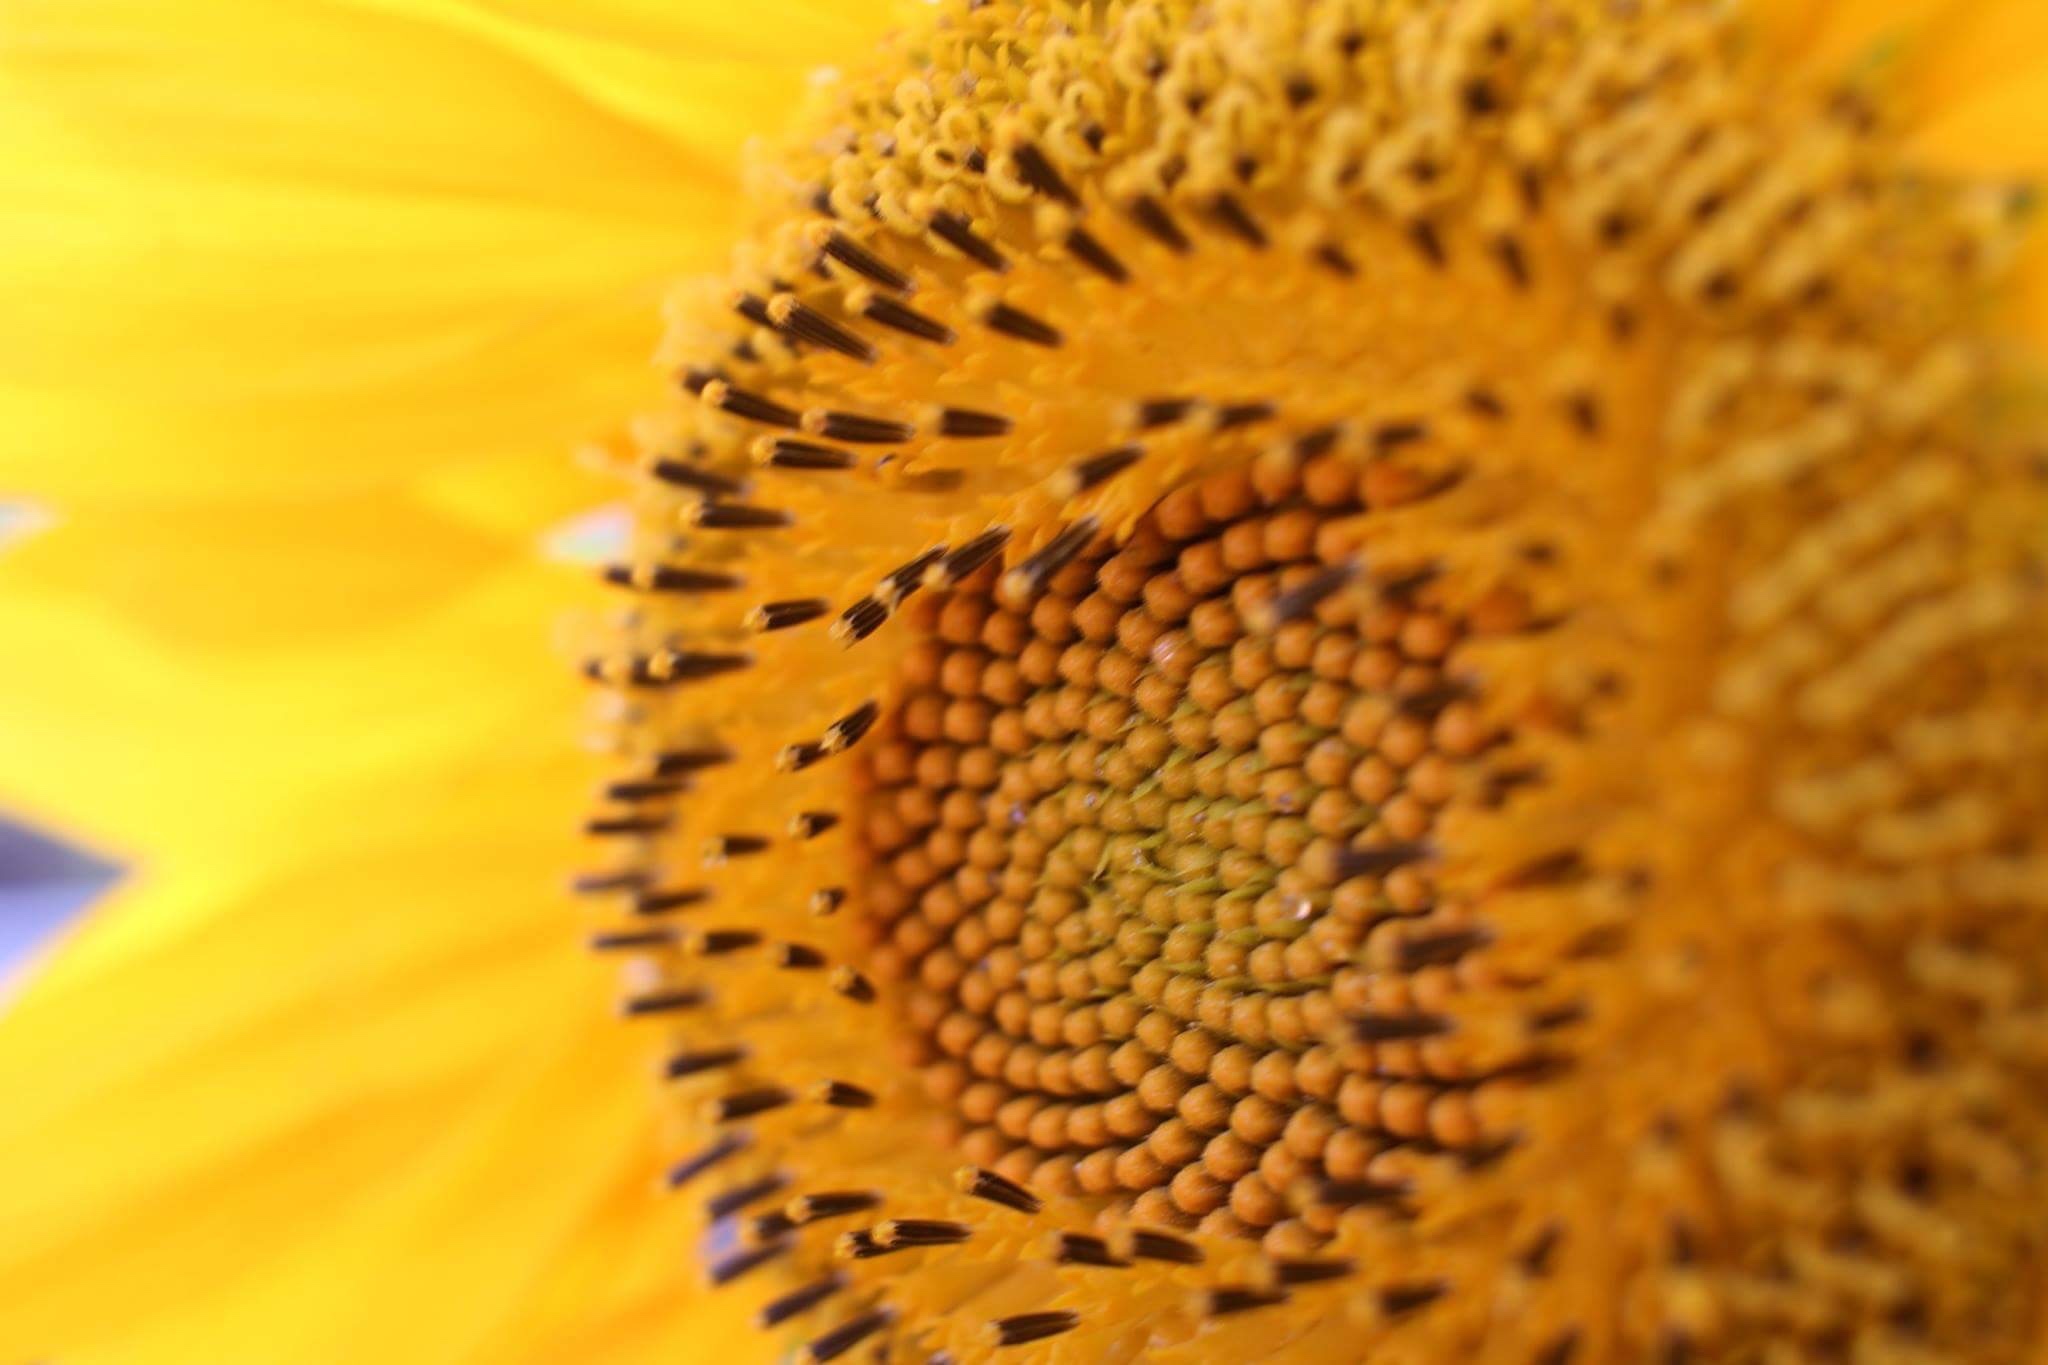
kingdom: Plantae
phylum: Tracheophyta
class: Magnoliopsida
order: Asterales
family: Asteraceae
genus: Helianthus
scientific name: Helianthus annuus
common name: Sunflower
